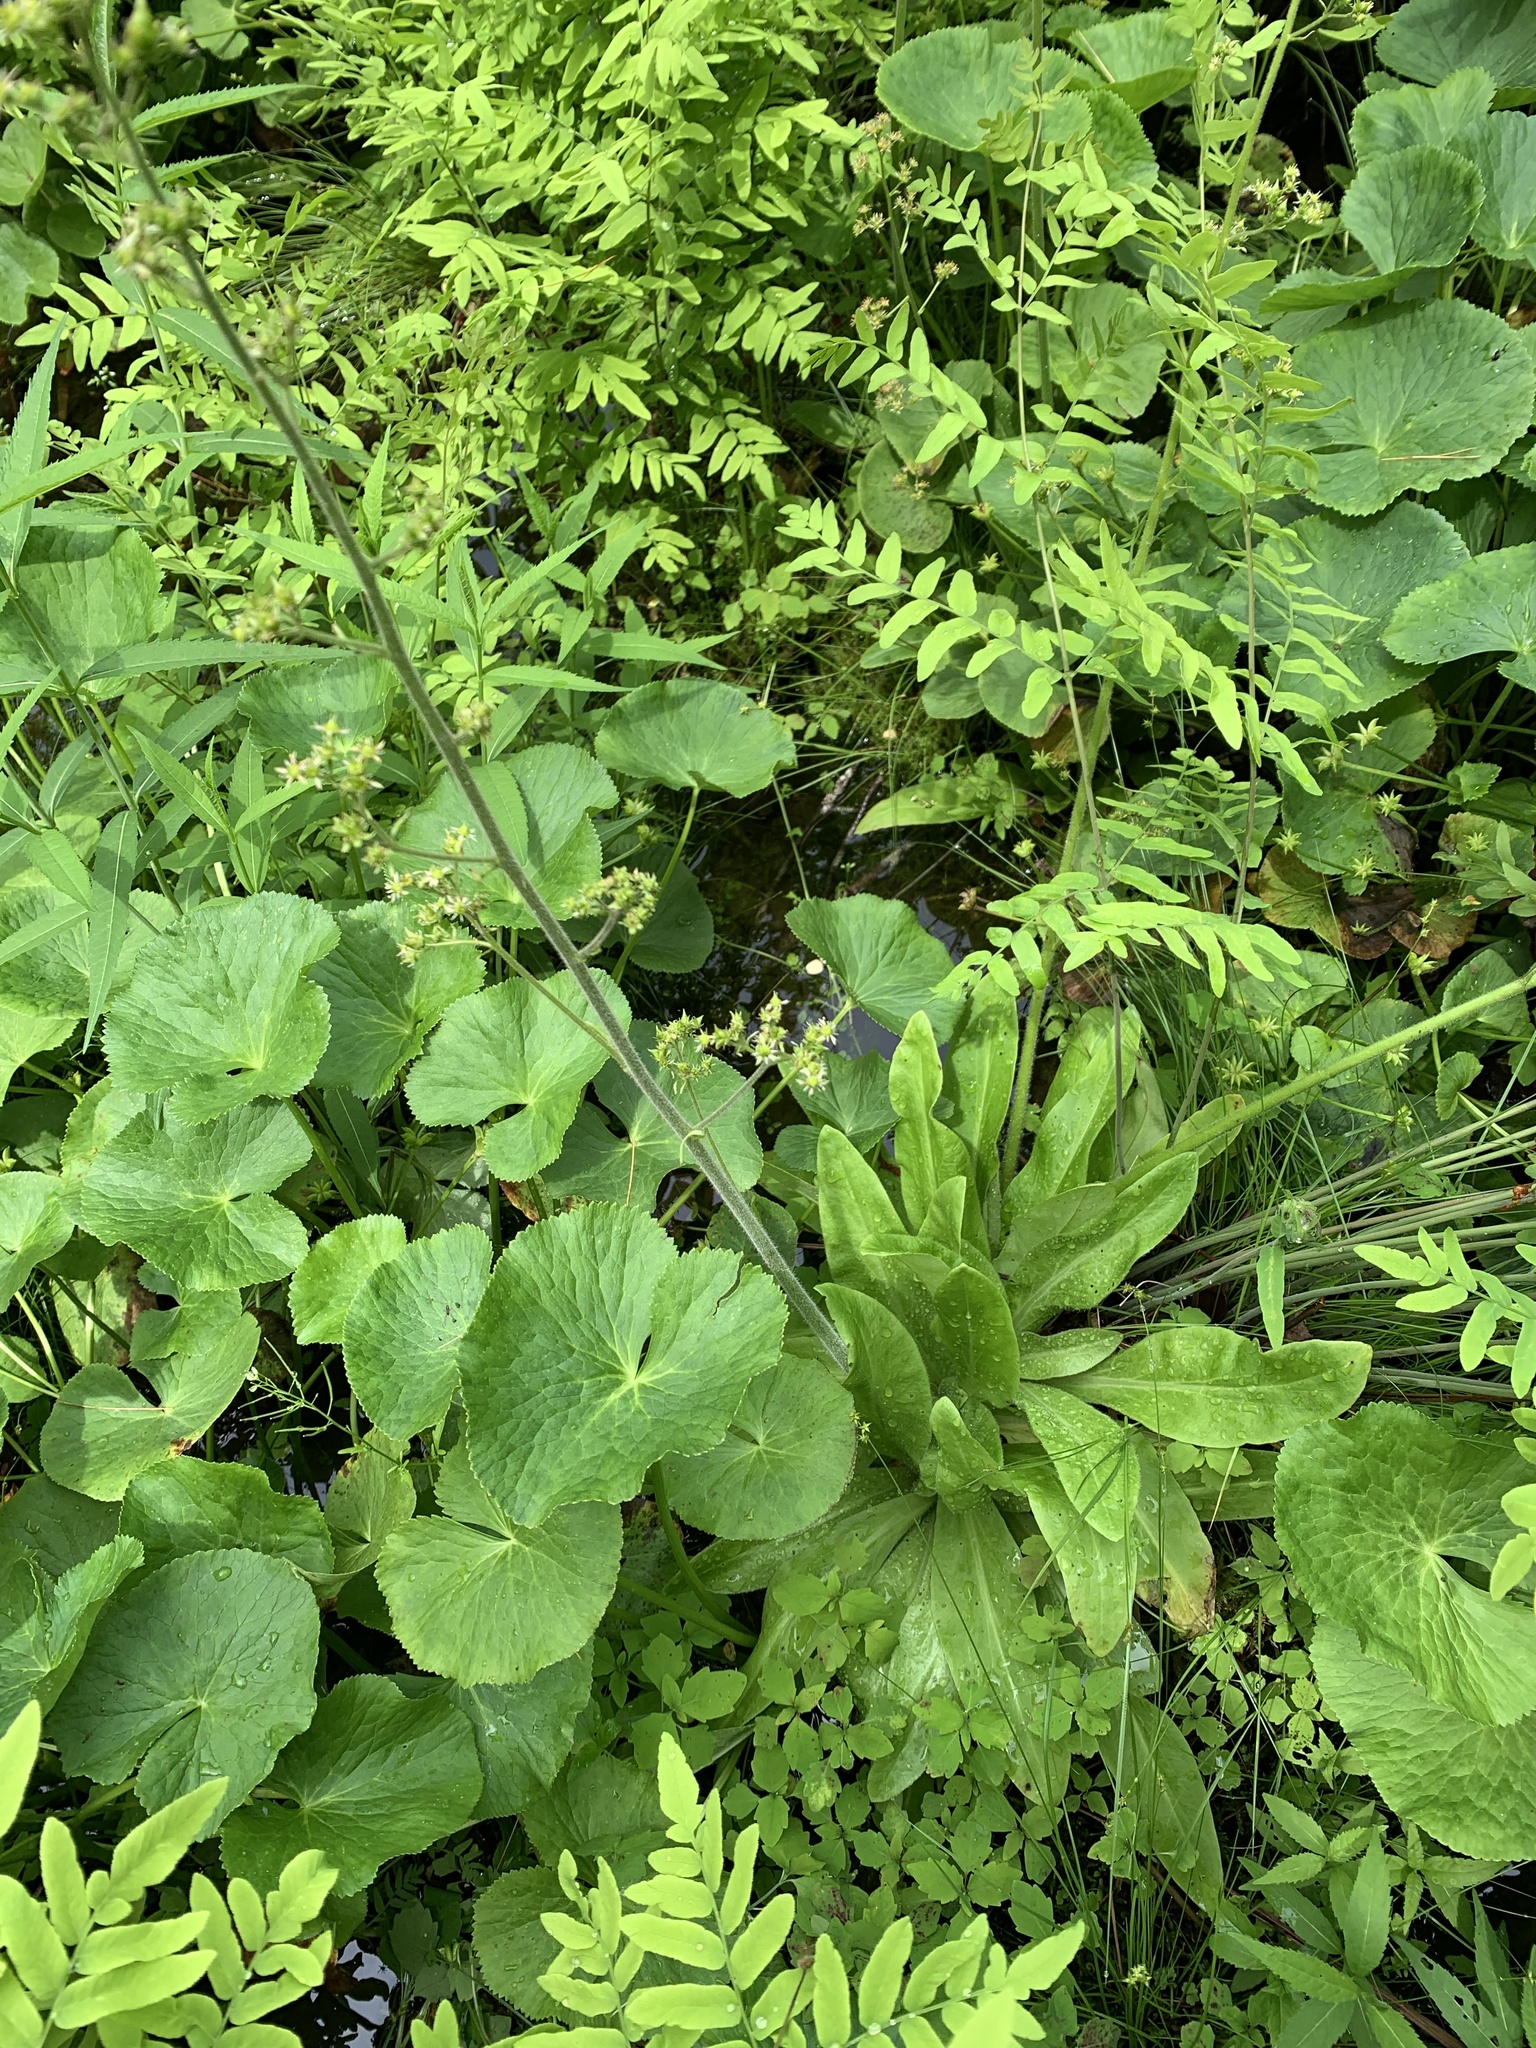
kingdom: Plantae
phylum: Tracheophyta
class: Magnoliopsida
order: Saxifragales
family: Saxifragaceae
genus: Micranthes
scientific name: Micranthes pensylvanica
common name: Marsh saxifrage
